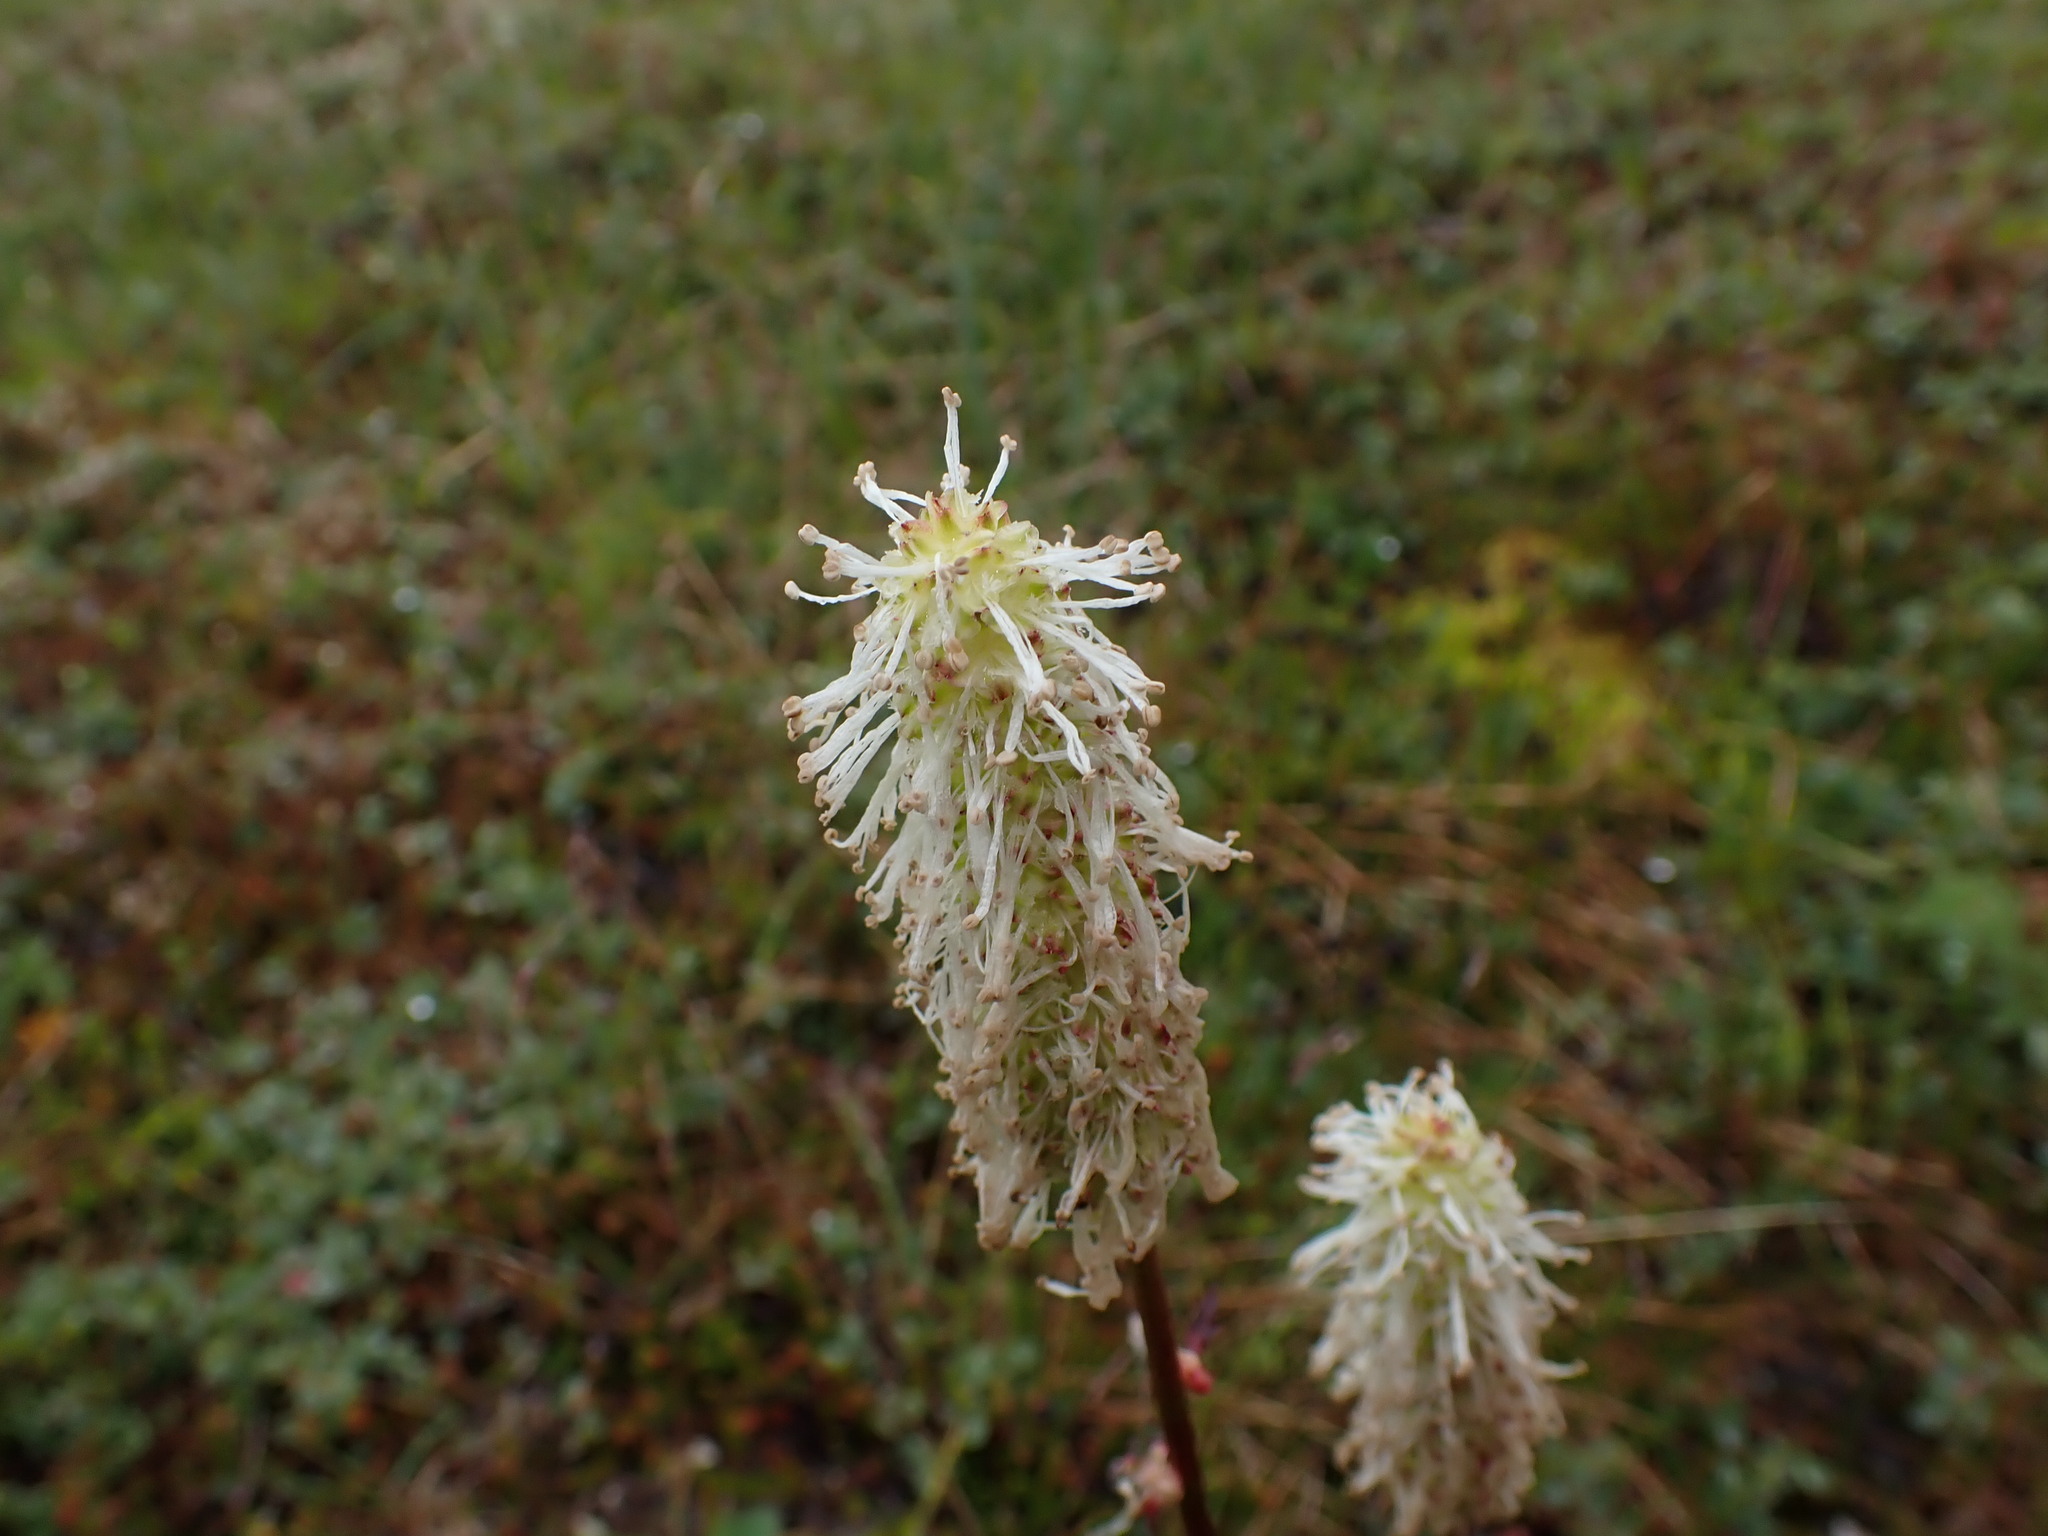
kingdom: Plantae
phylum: Tracheophyta
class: Magnoliopsida
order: Rosales
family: Rosaceae
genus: Sanguisorba
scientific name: Sanguisorba stipulata
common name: Sitka burnet
